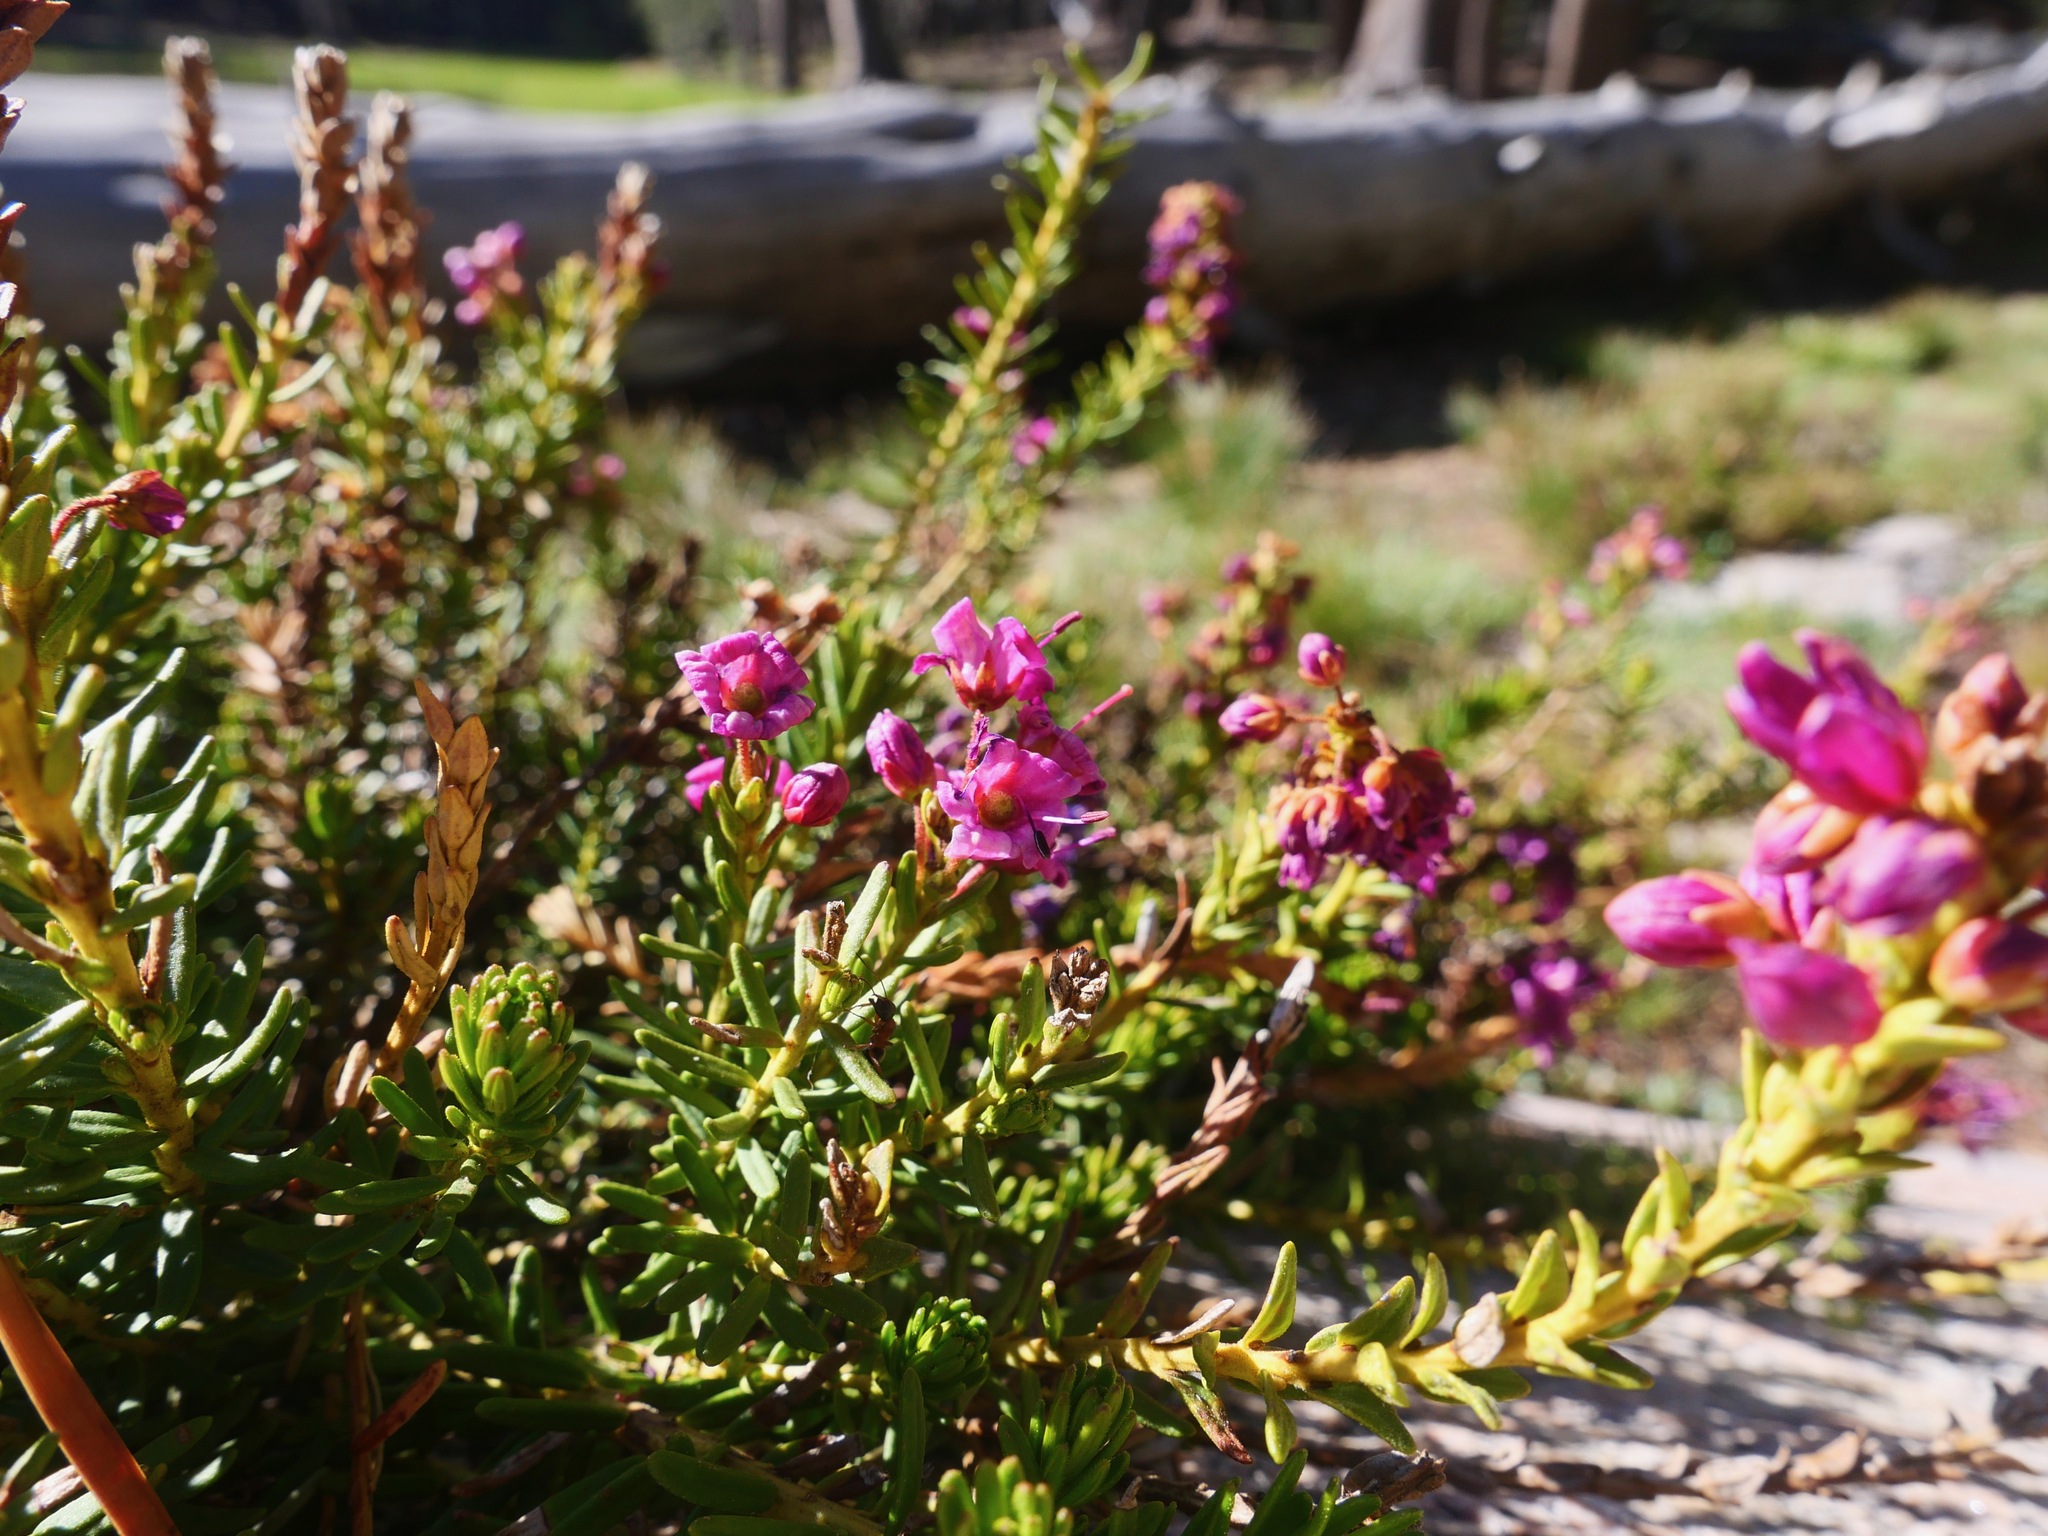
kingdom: Plantae
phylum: Tracheophyta
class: Magnoliopsida
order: Ericales
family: Ericaceae
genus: Phyllodoce
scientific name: Phyllodoce breweri
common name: Brewer's mountain-heather
